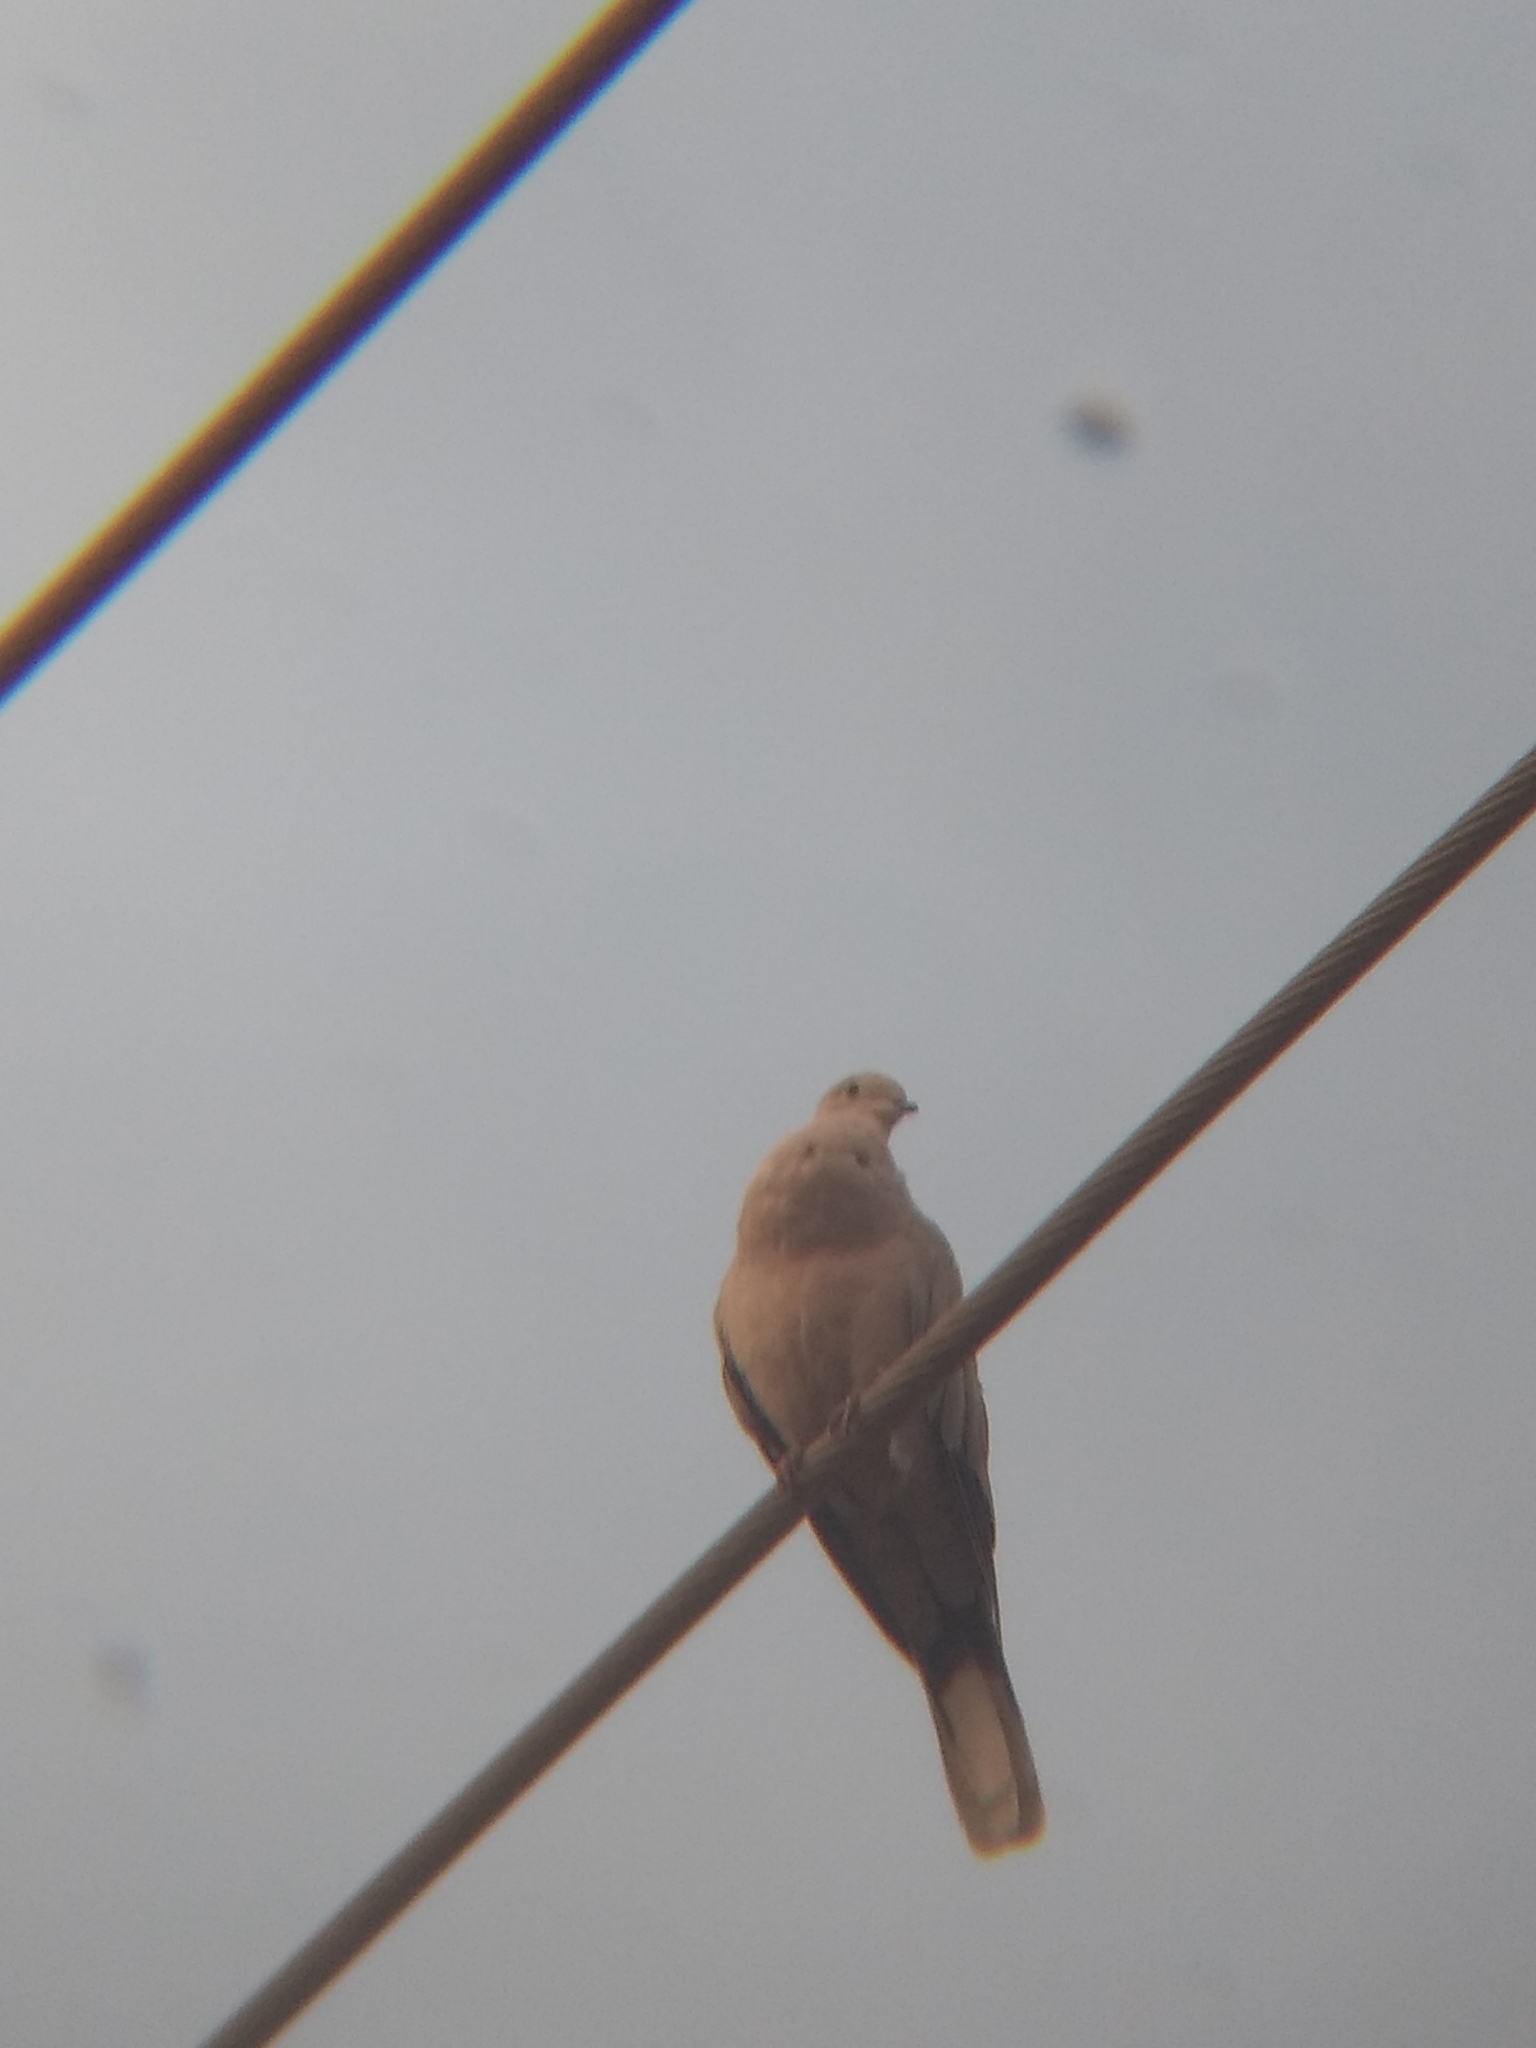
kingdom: Animalia
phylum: Chordata
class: Aves
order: Columbiformes
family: Columbidae
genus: Streptopelia
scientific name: Streptopelia decaocto
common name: Eurasian collared dove
